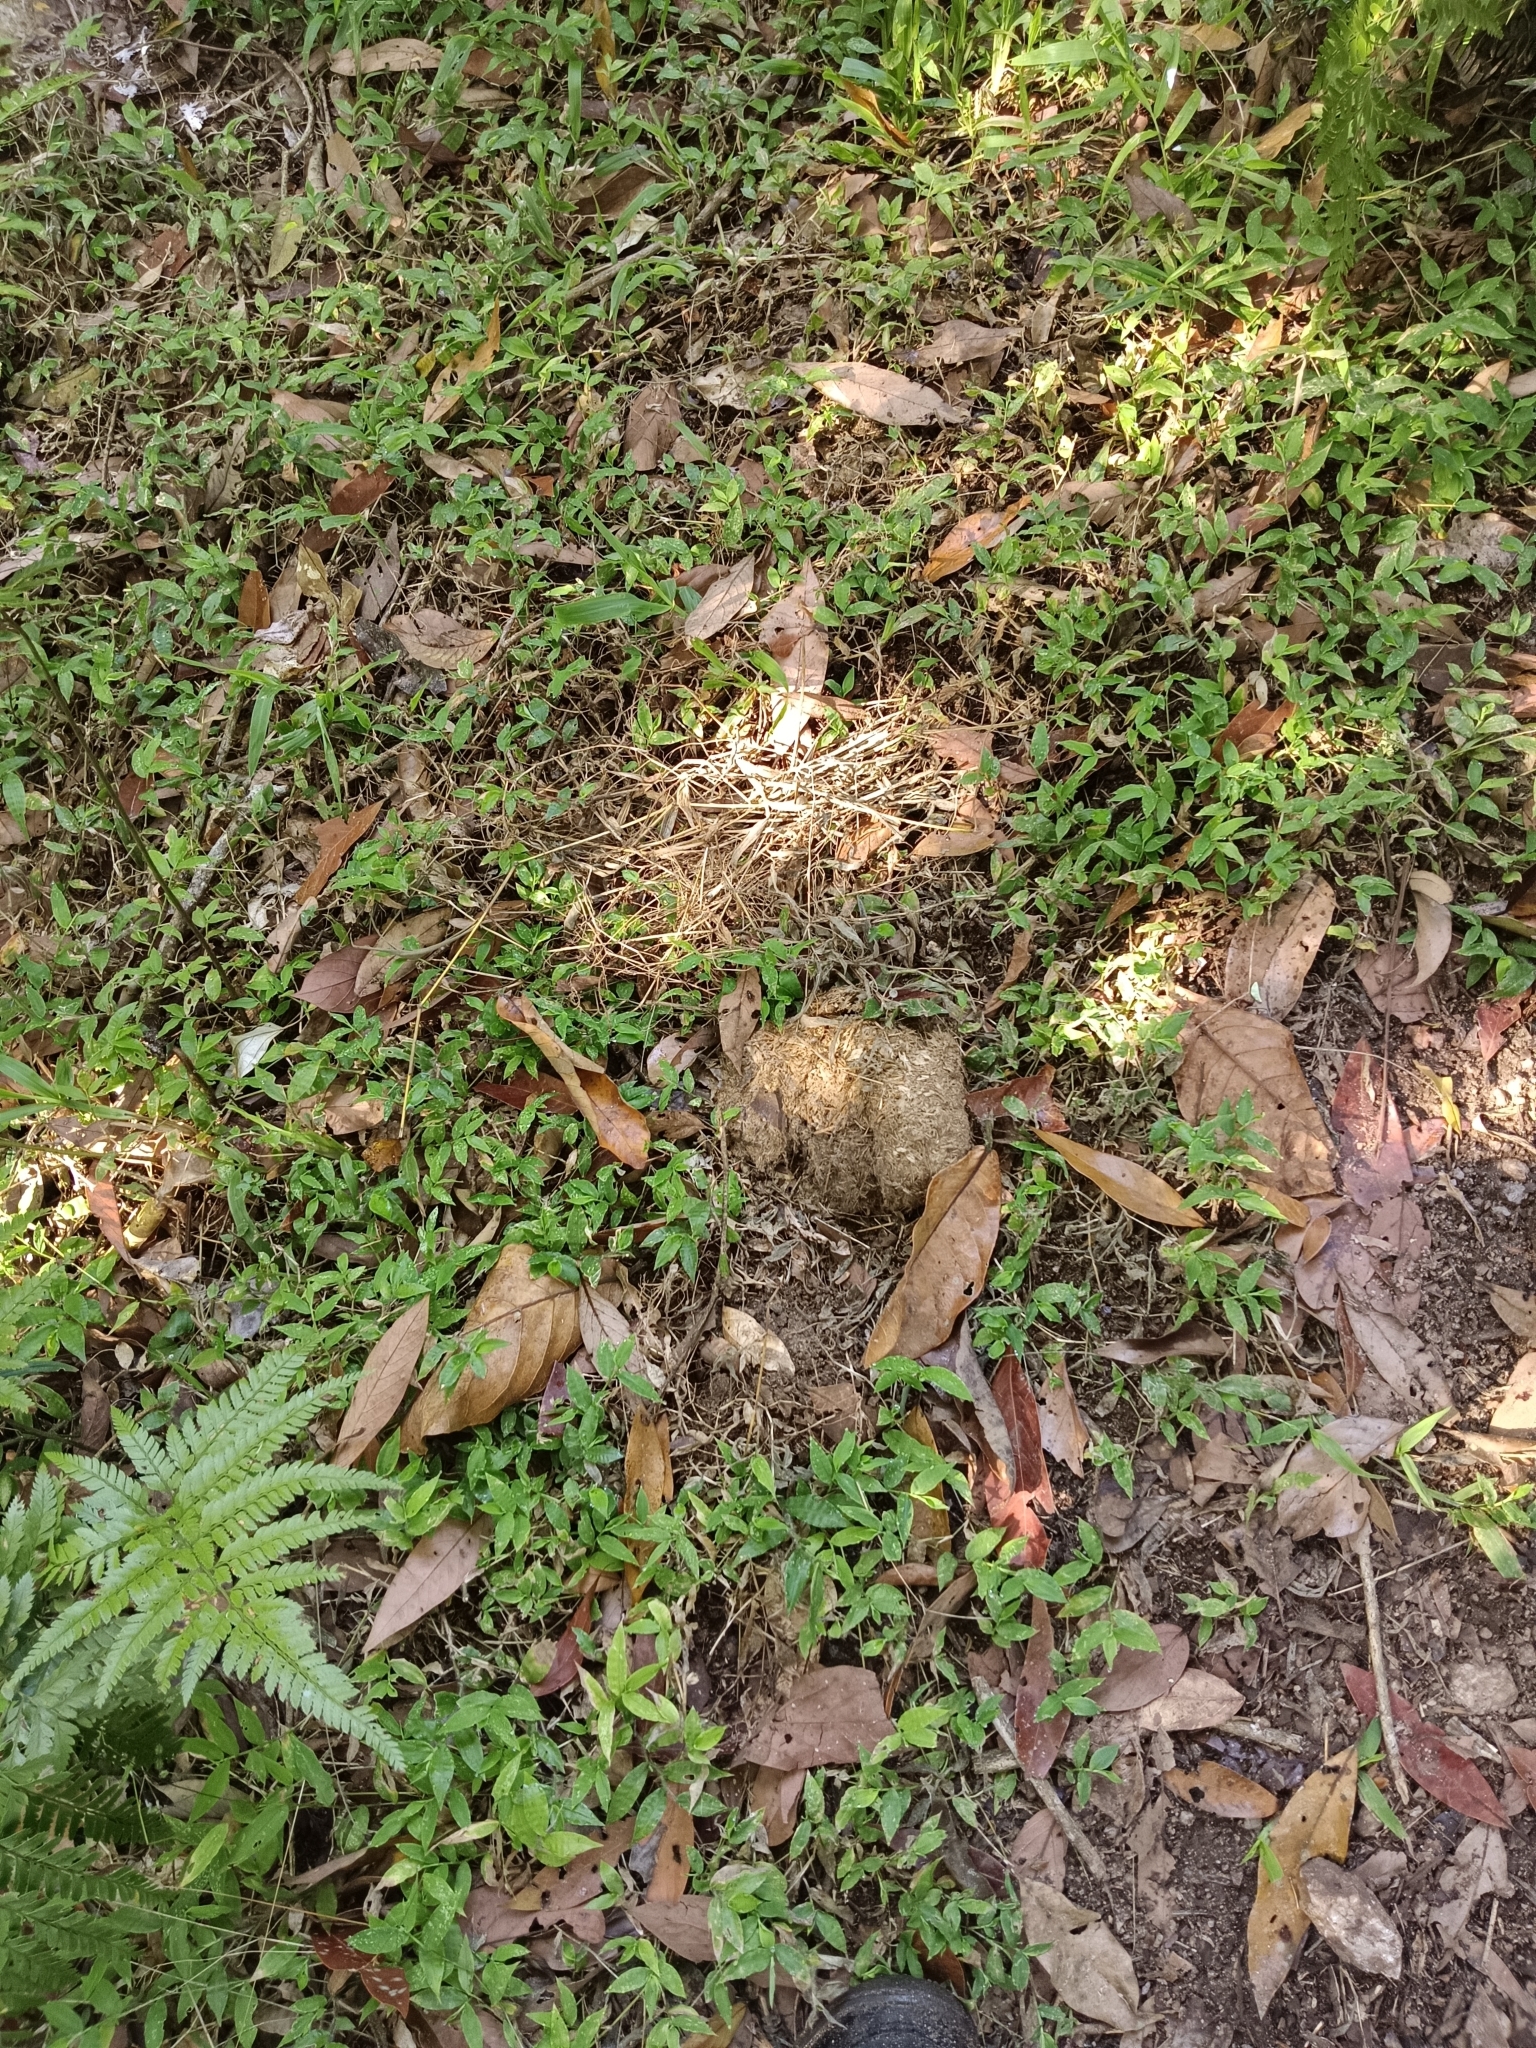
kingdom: Animalia
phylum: Chordata
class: Mammalia
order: Proboscidea
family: Elephantidae
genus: Elephas
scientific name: Elephas maximus
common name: Asian elephant
